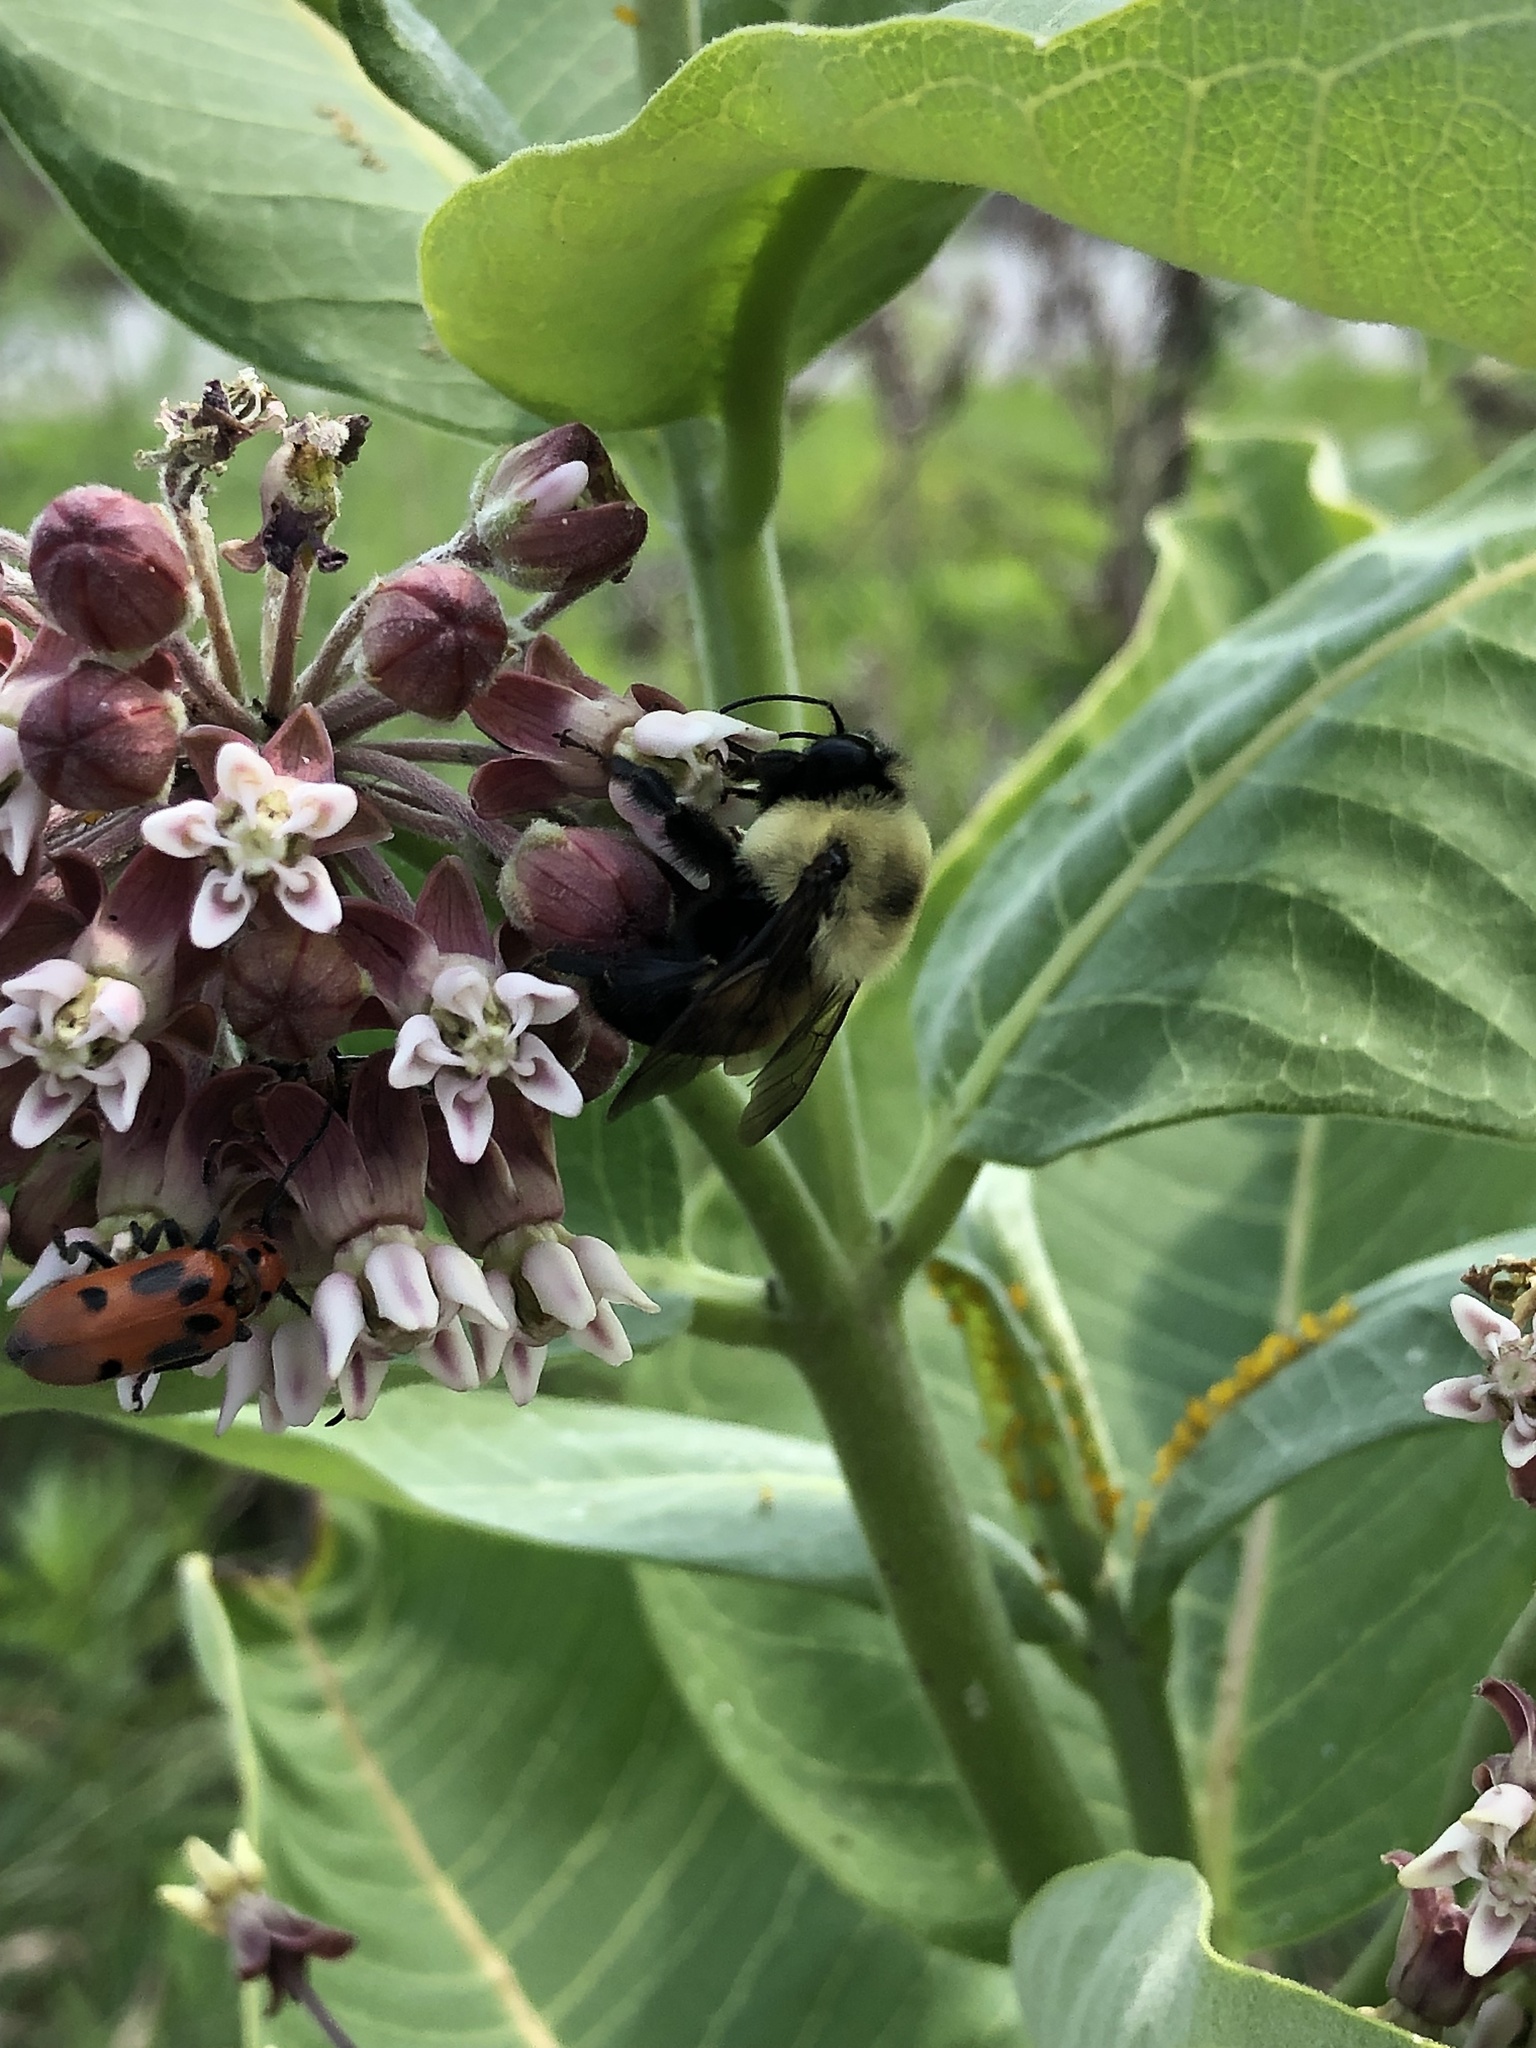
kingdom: Animalia
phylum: Arthropoda
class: Insecta
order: Hymenoptera
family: Apidae
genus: Bombus
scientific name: Bombus griseocollis
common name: Brown-belted bumble bee
